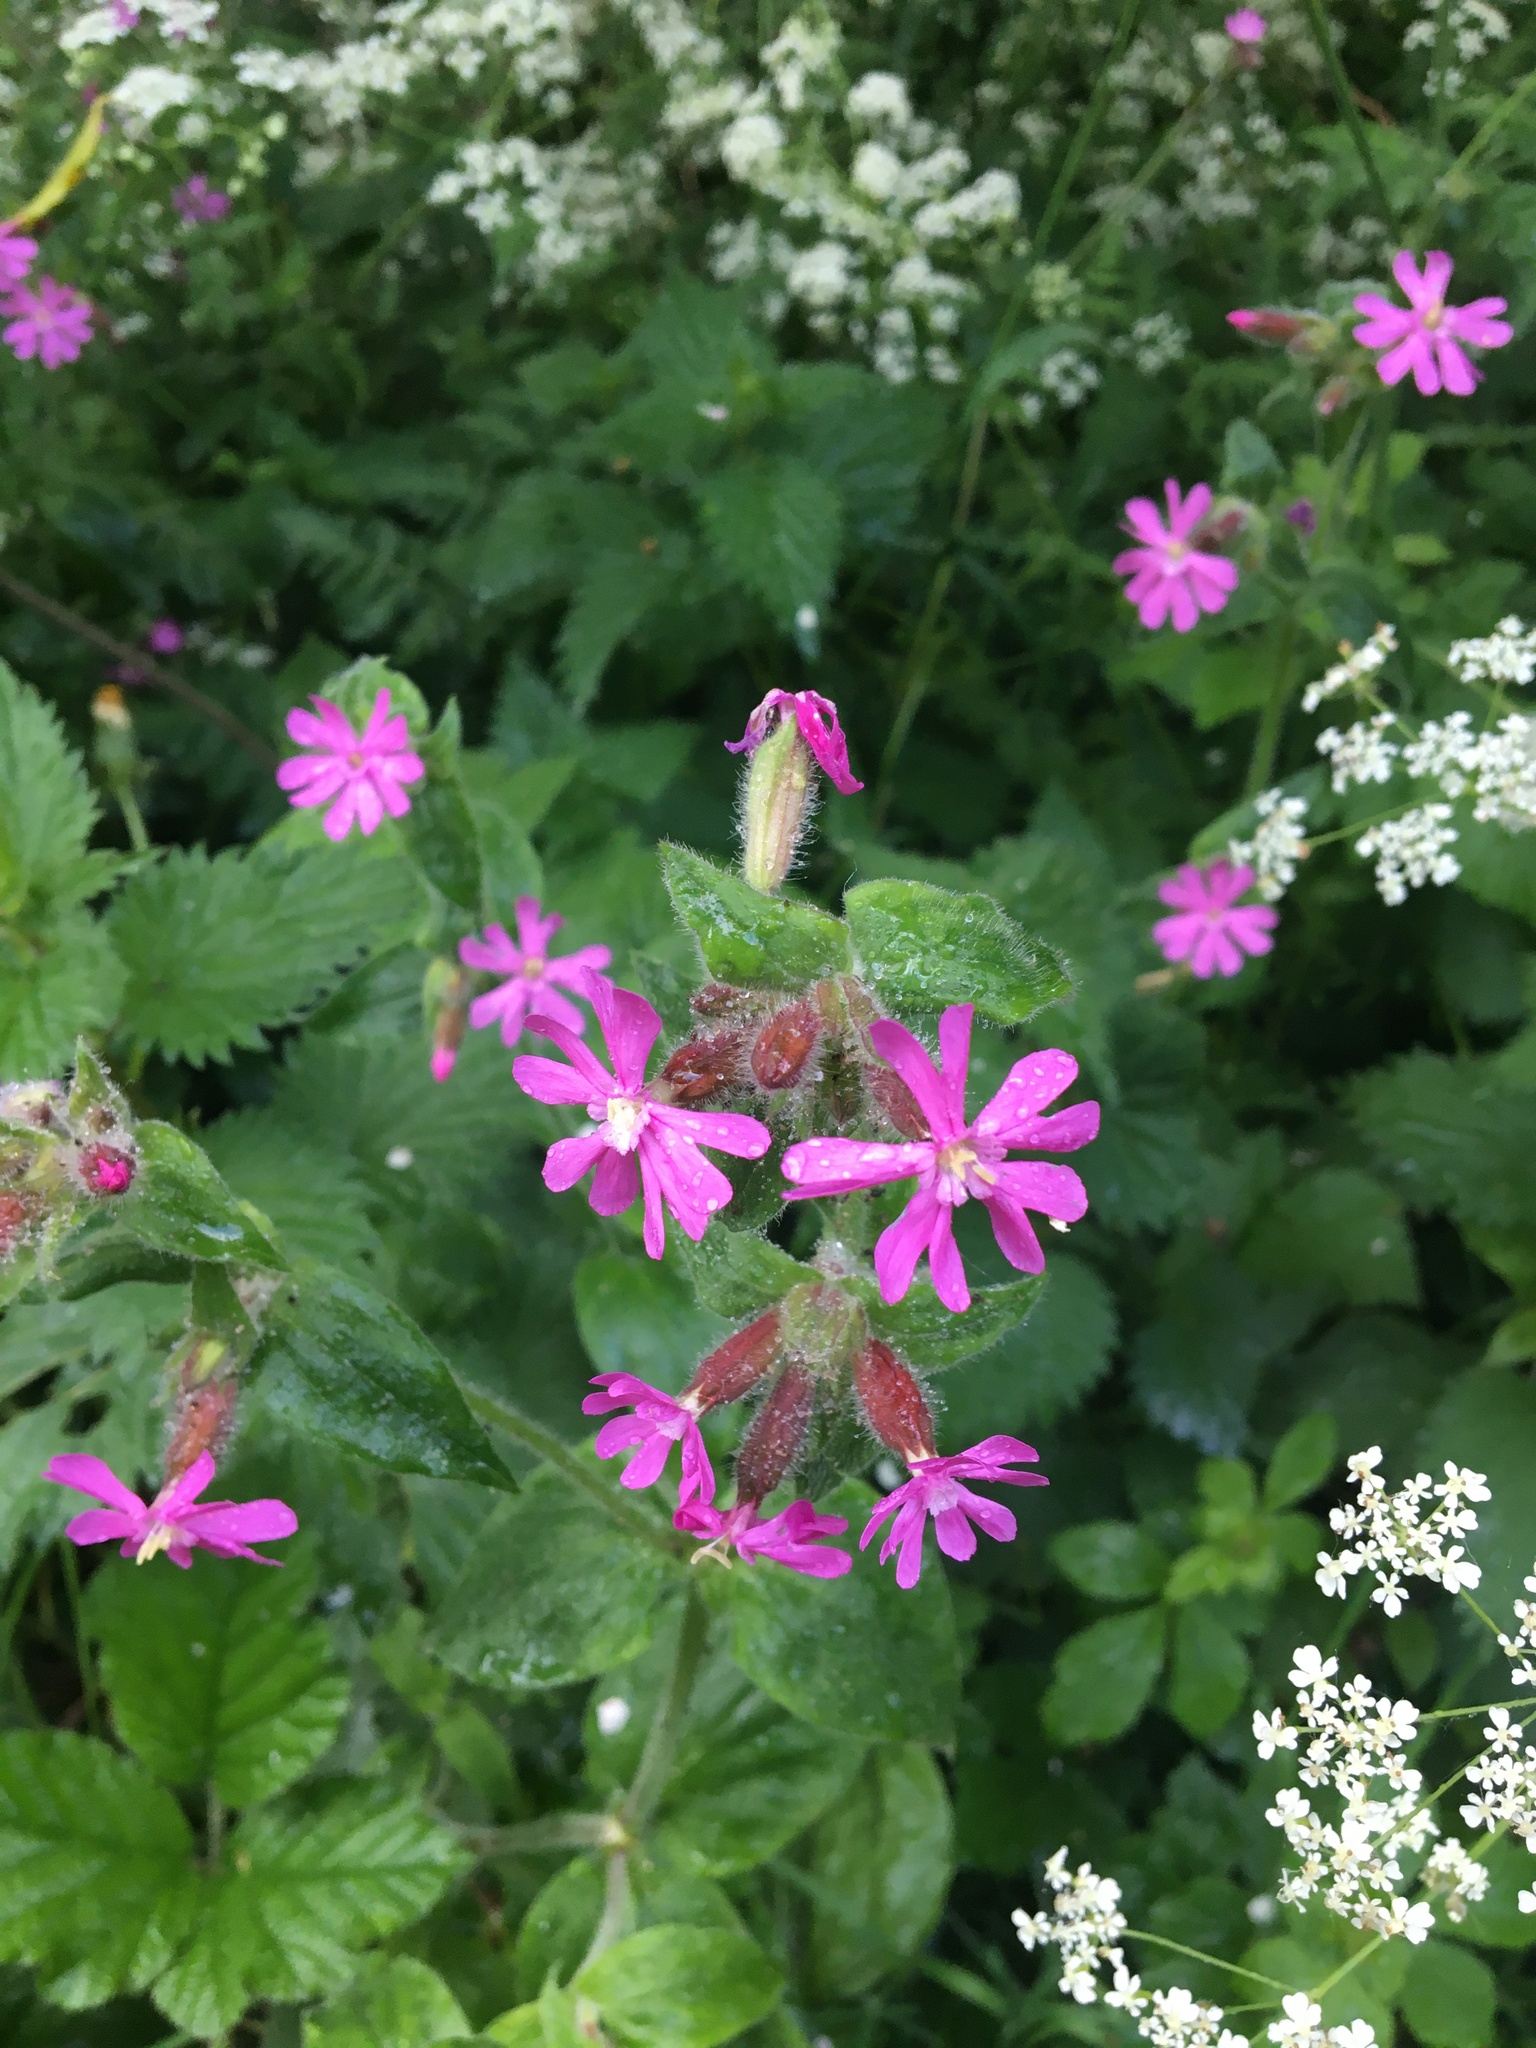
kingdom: Plantae
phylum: Tracheophyta
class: Magnoliopsida
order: Caryophyllales
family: Caryophyllaceae
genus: Silene
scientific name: Silene dioica
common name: Red campion
